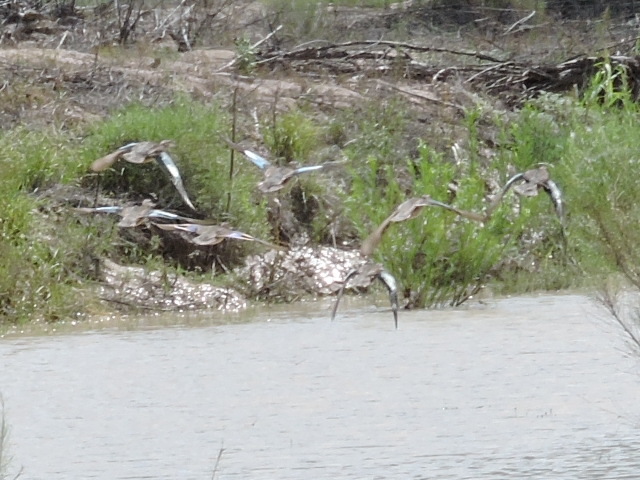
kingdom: Animalia
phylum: Chordata
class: Aves
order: Anseriformes
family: Anatidae
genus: Spatula
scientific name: Spatula discors
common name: Blue-winged teal
